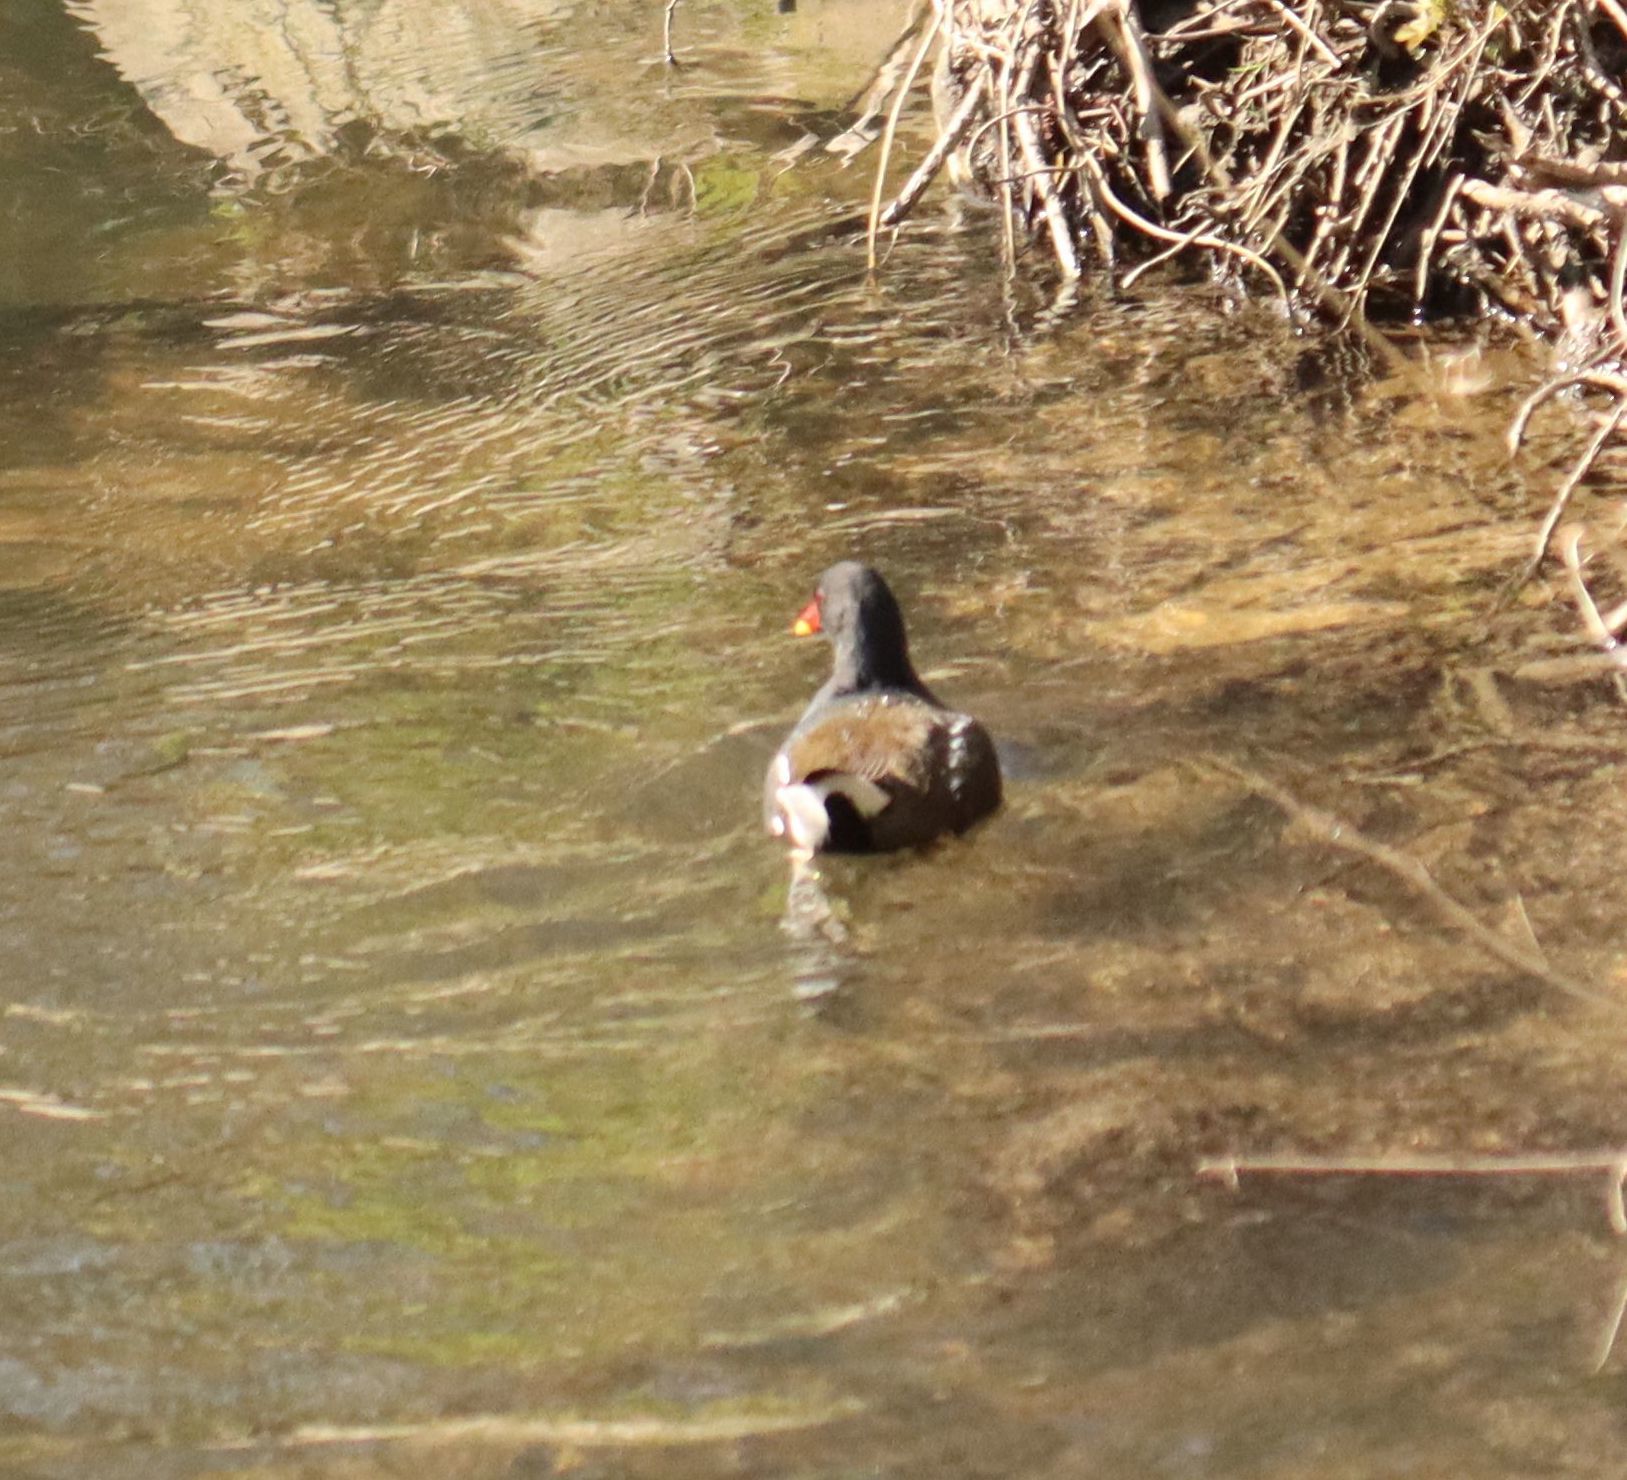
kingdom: Animalia
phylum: Chordata
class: Aves
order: Gruiformes
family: Rallidae
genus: Gallinula
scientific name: Gallinula chloropus
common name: Common moorhen
